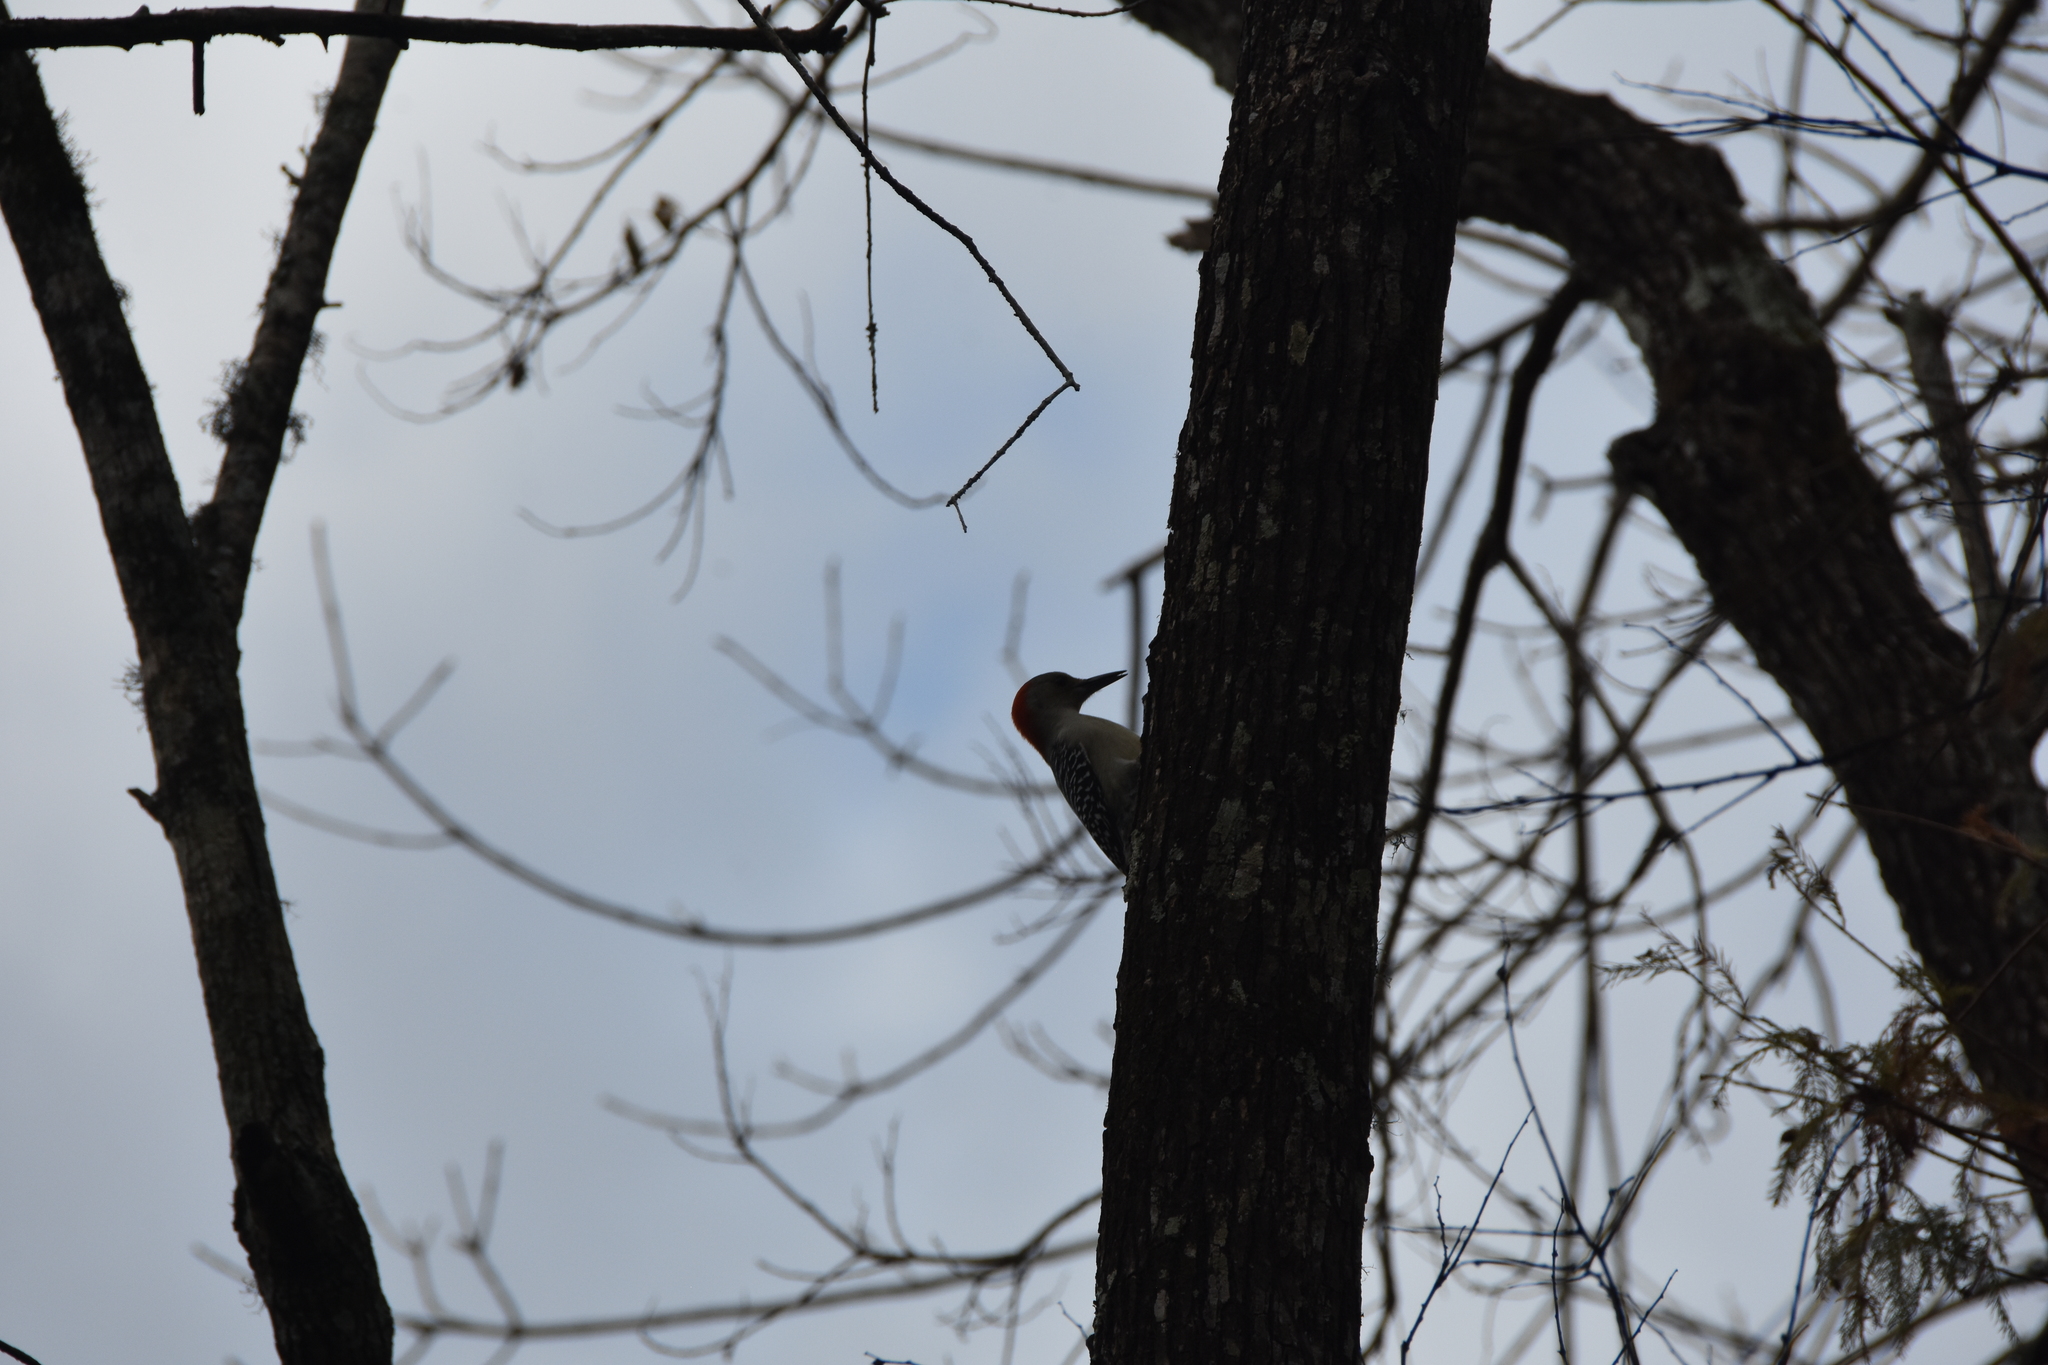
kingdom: Animalia
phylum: Chordata
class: Aves
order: Piciformes
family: Picidae
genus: Melanerpes
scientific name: Melanerpes carolinus
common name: Red-bellied woodpecker
